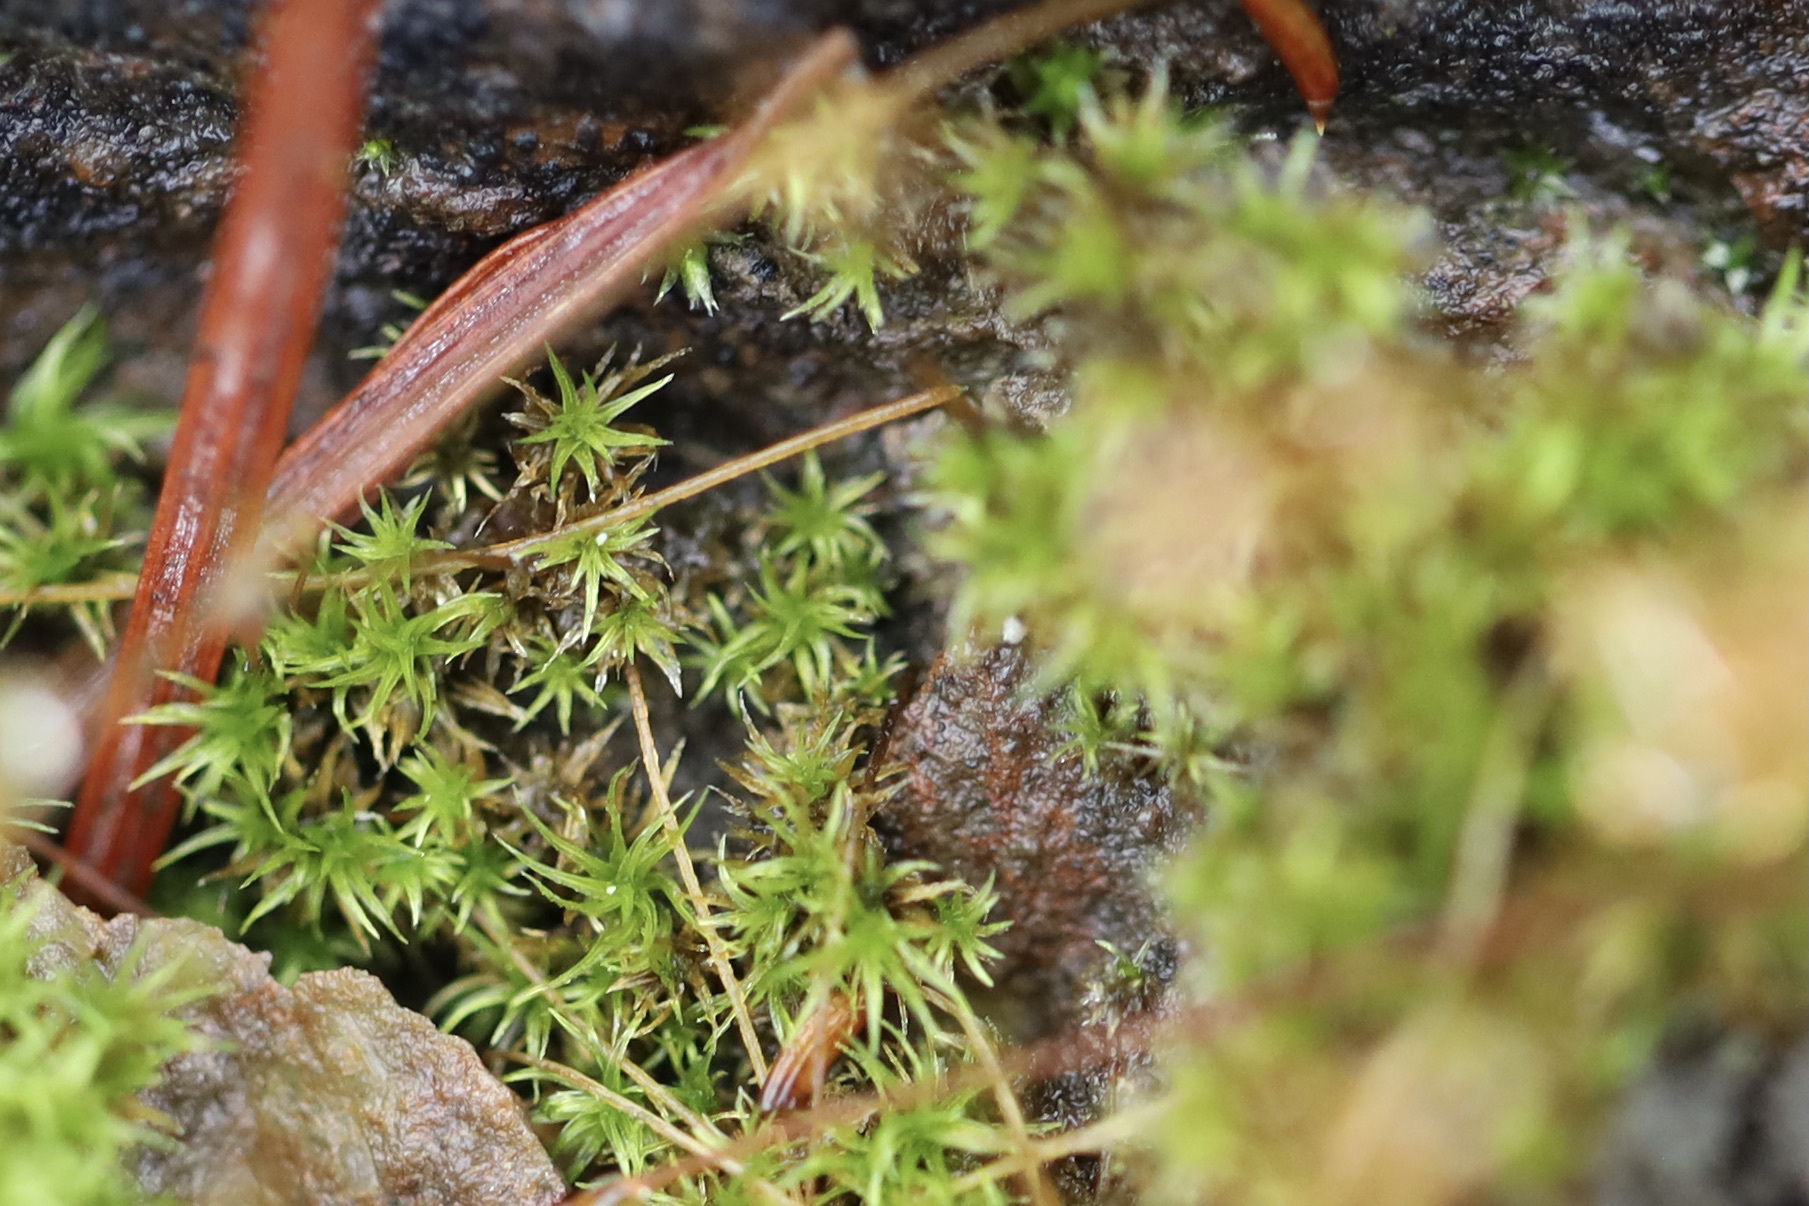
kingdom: Plantae
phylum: Bryophyta
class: Bryopsida
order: Dicranales
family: Ditrichaceae
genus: Ceratodon
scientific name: Ceratodon purpureus
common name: Redshank
